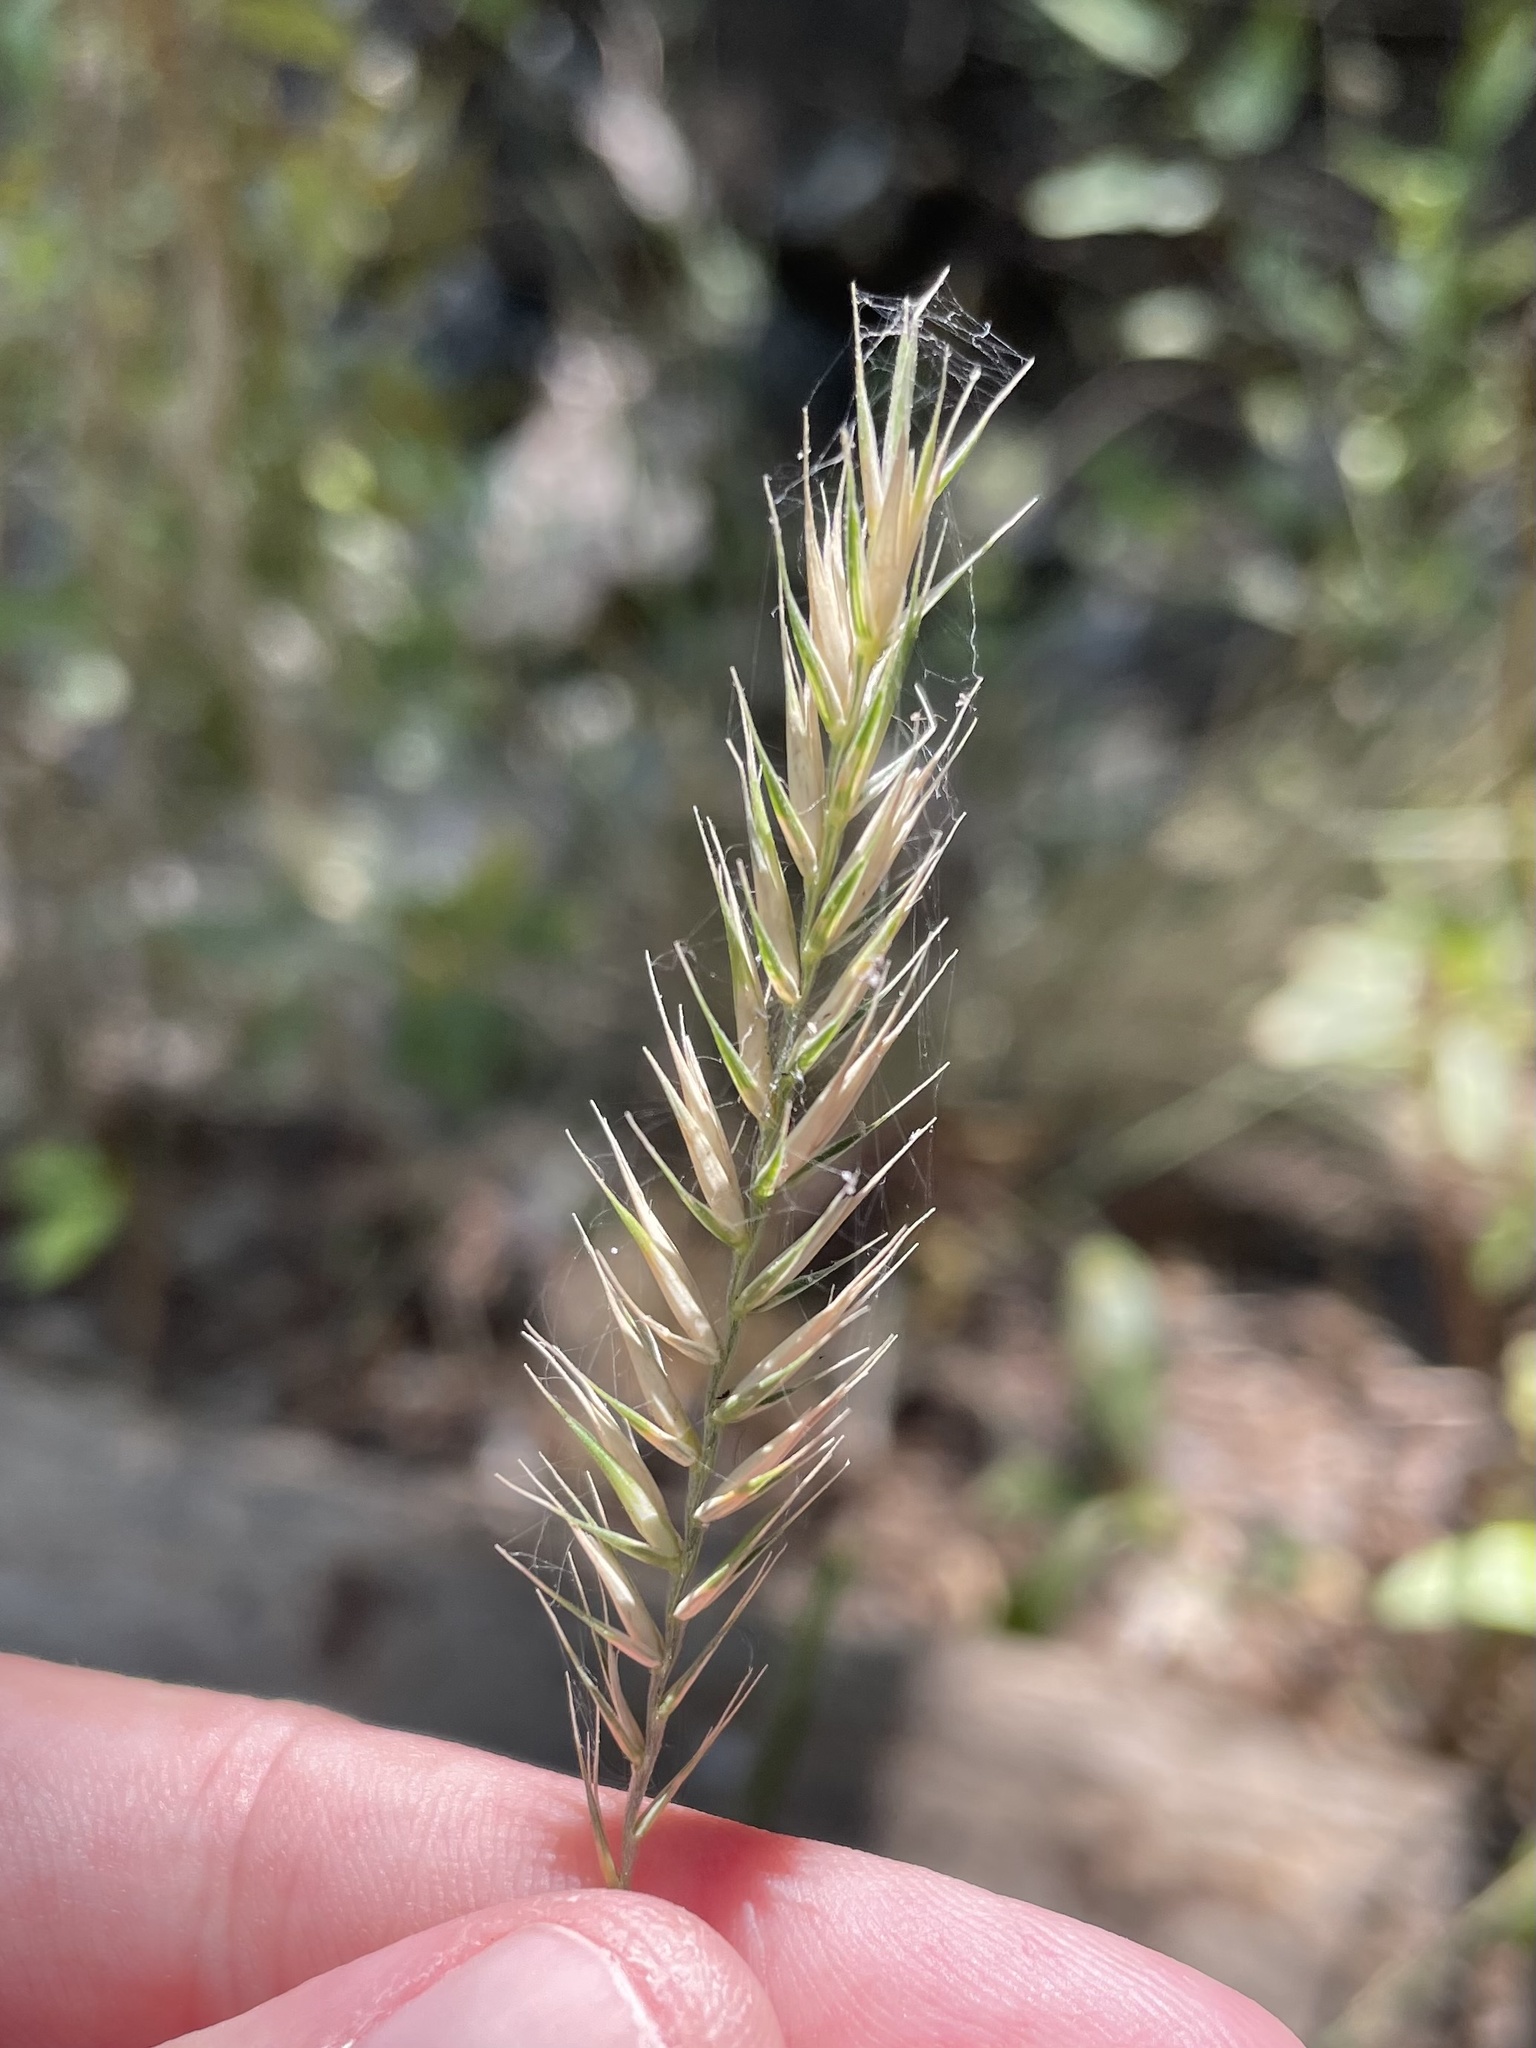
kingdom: Plantae
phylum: Tracheophyta
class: Liliopsida
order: Poales
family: Poaceae
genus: Agropyron
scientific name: Agropyron cristatum
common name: Crested wheatgrass
